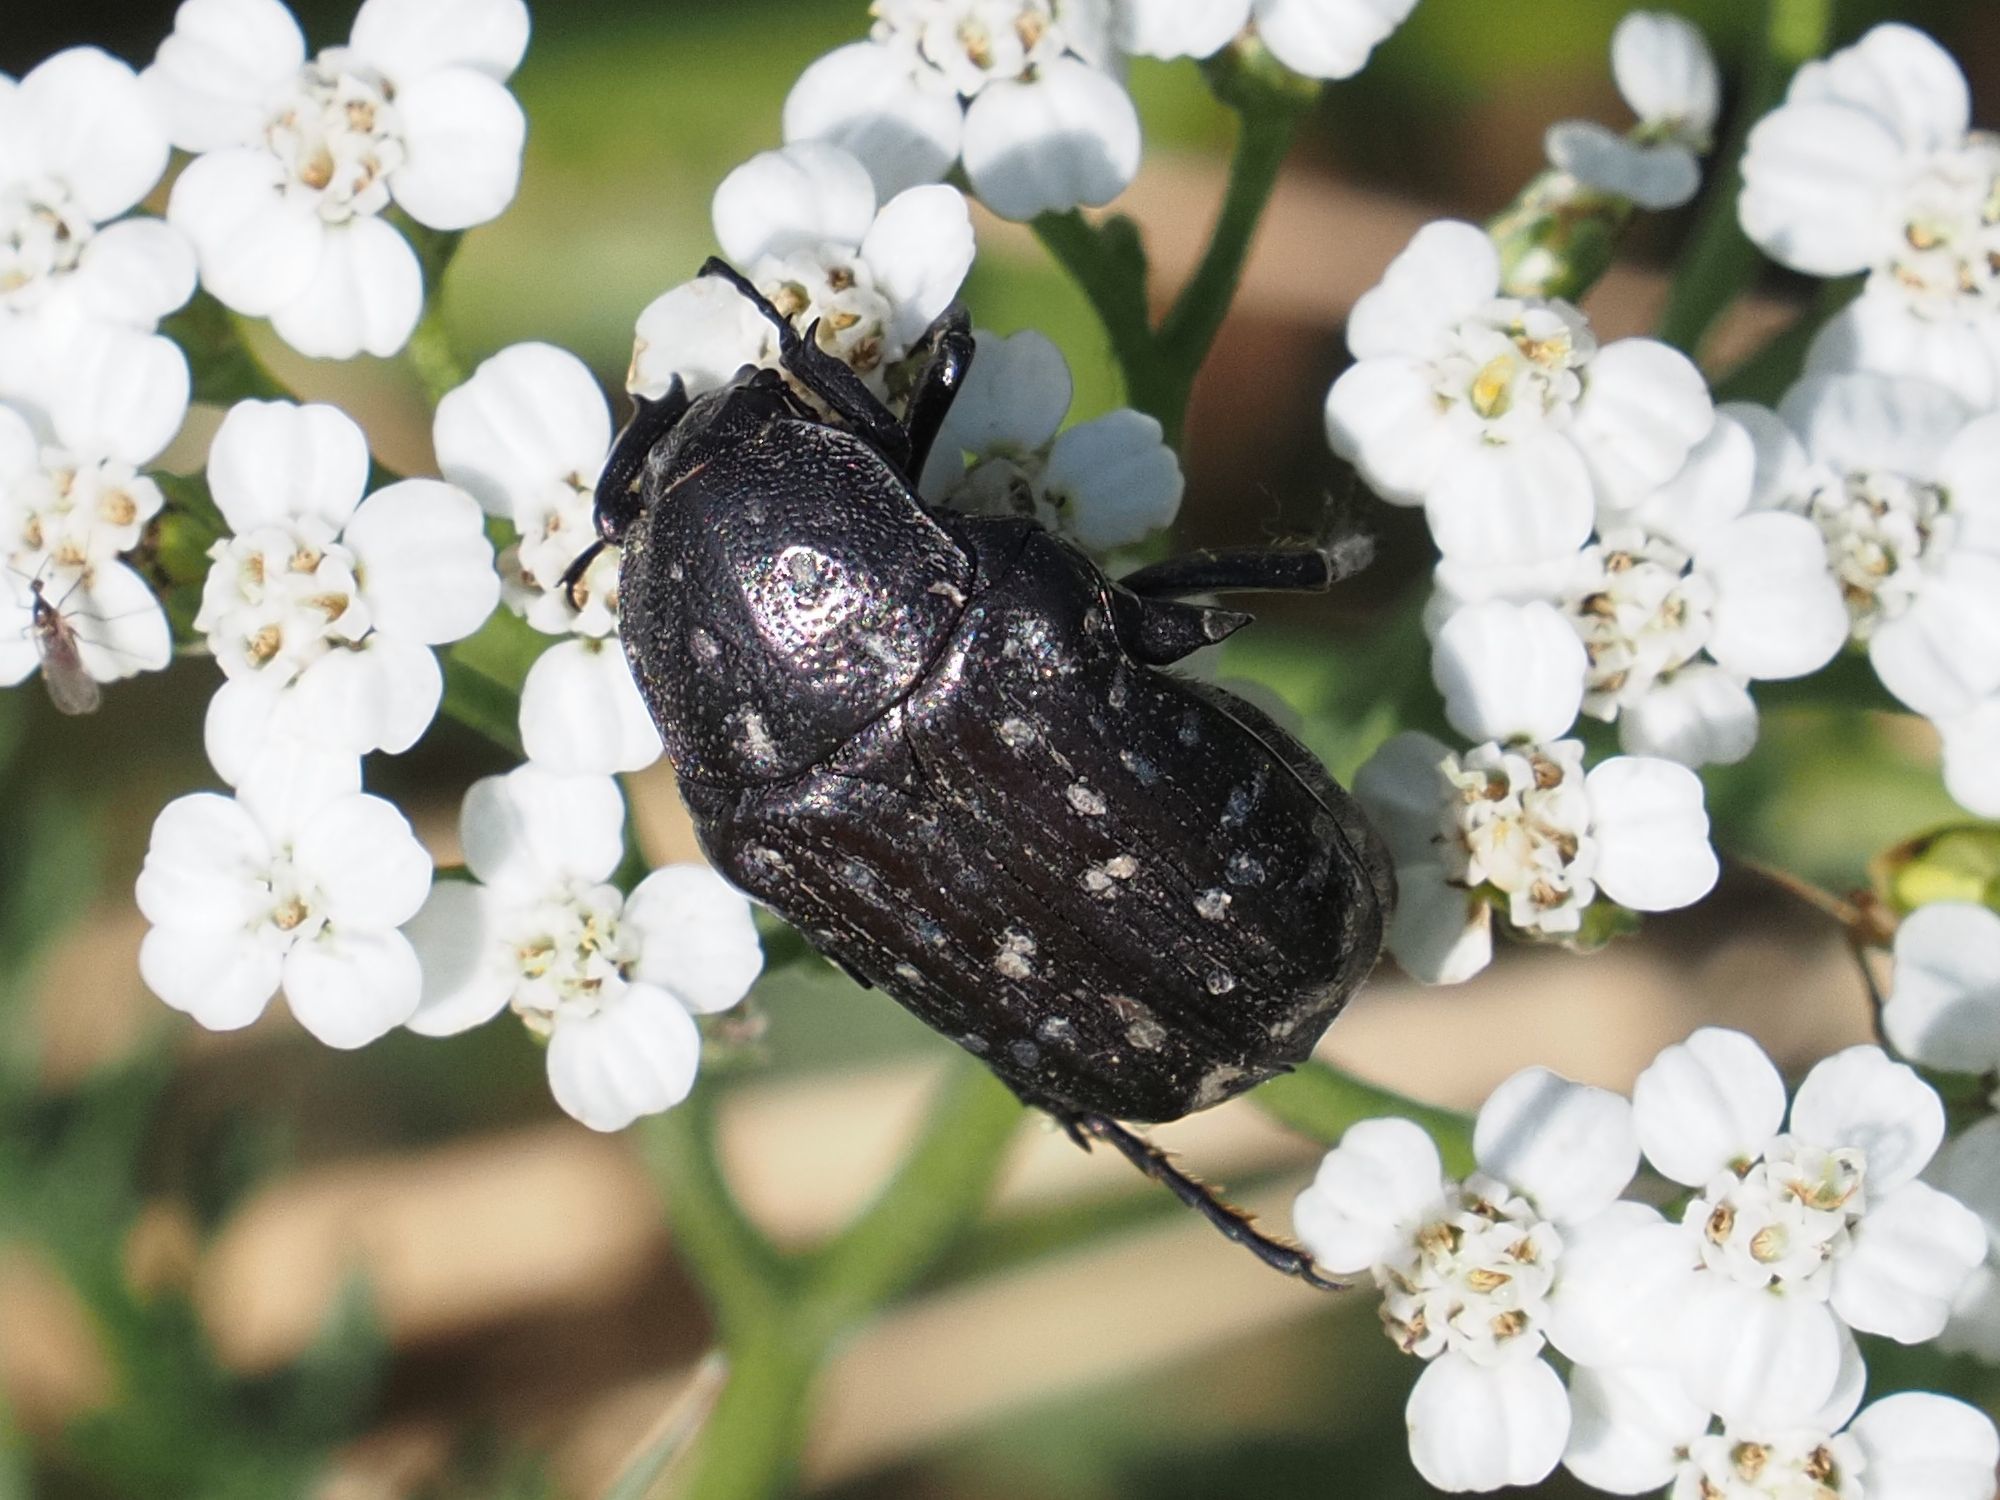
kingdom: Animalia
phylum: Arthropoda
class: Insecta
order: Coleoptera
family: Scarabaeidae
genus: Oxythyrea
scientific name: Oxythyrea funesta
